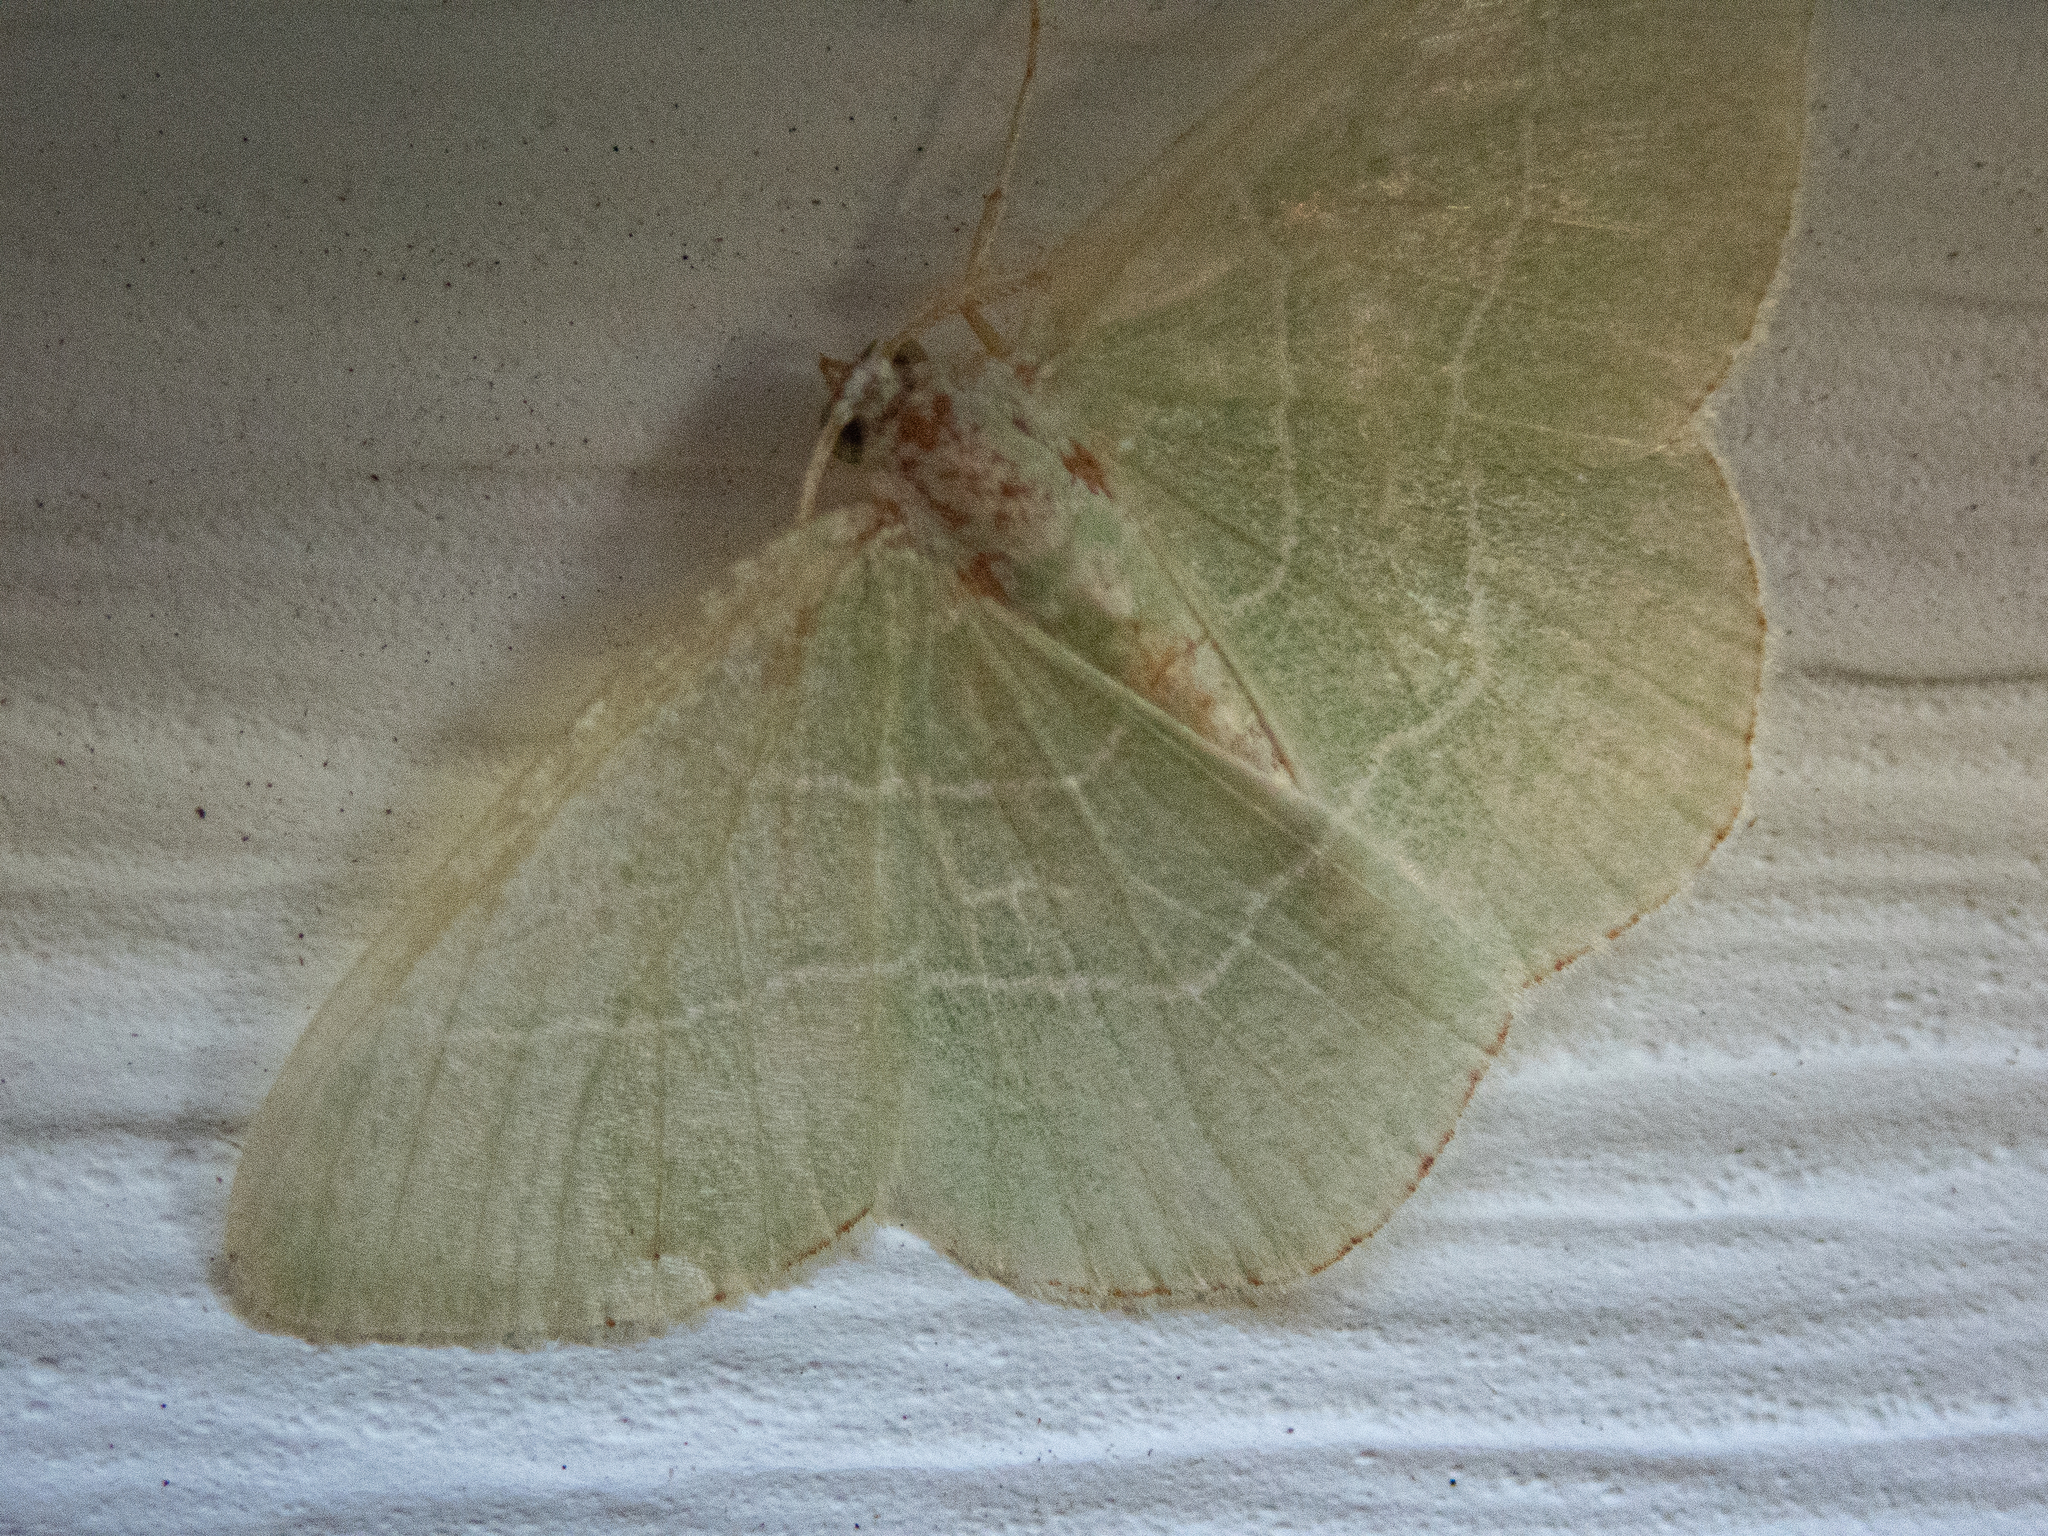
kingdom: Animalia
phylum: Arthropoda
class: Insecta
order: Lepidoptera
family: Geometridae
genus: Nemoria
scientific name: Nemoria bistriaria
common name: Red-fringed emerald
